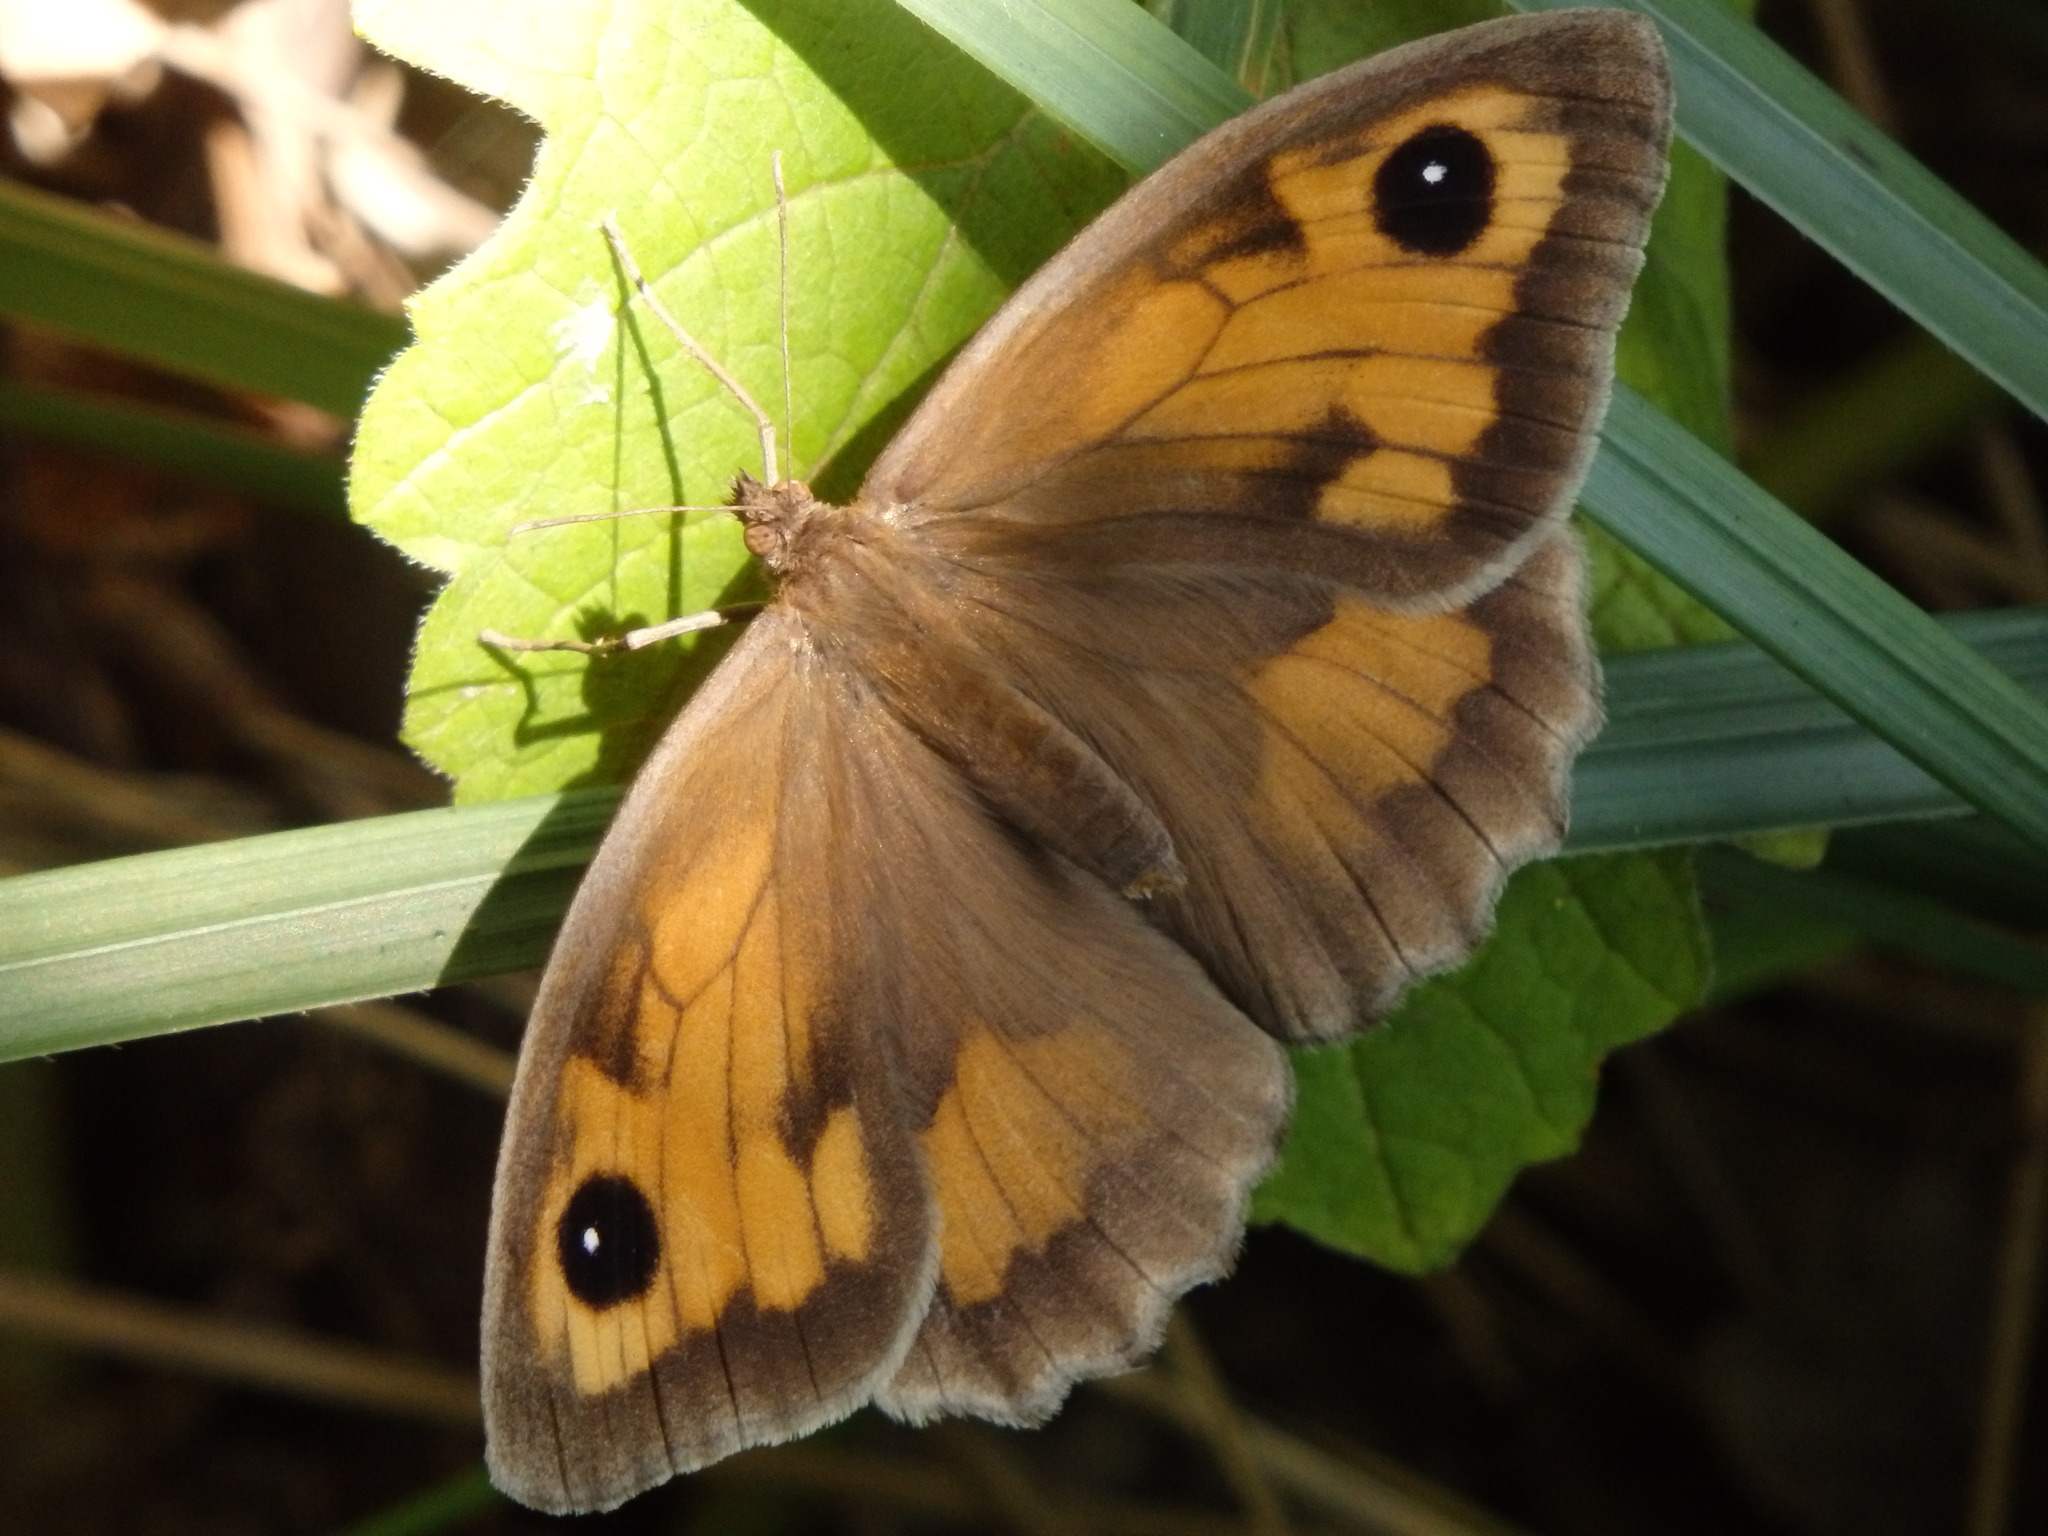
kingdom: Animalia
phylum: Arthropoda
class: Insecta
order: Lepidoptera
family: Nymphalidae
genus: Maniola
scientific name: Maniola jurtina
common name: Meadow brown
